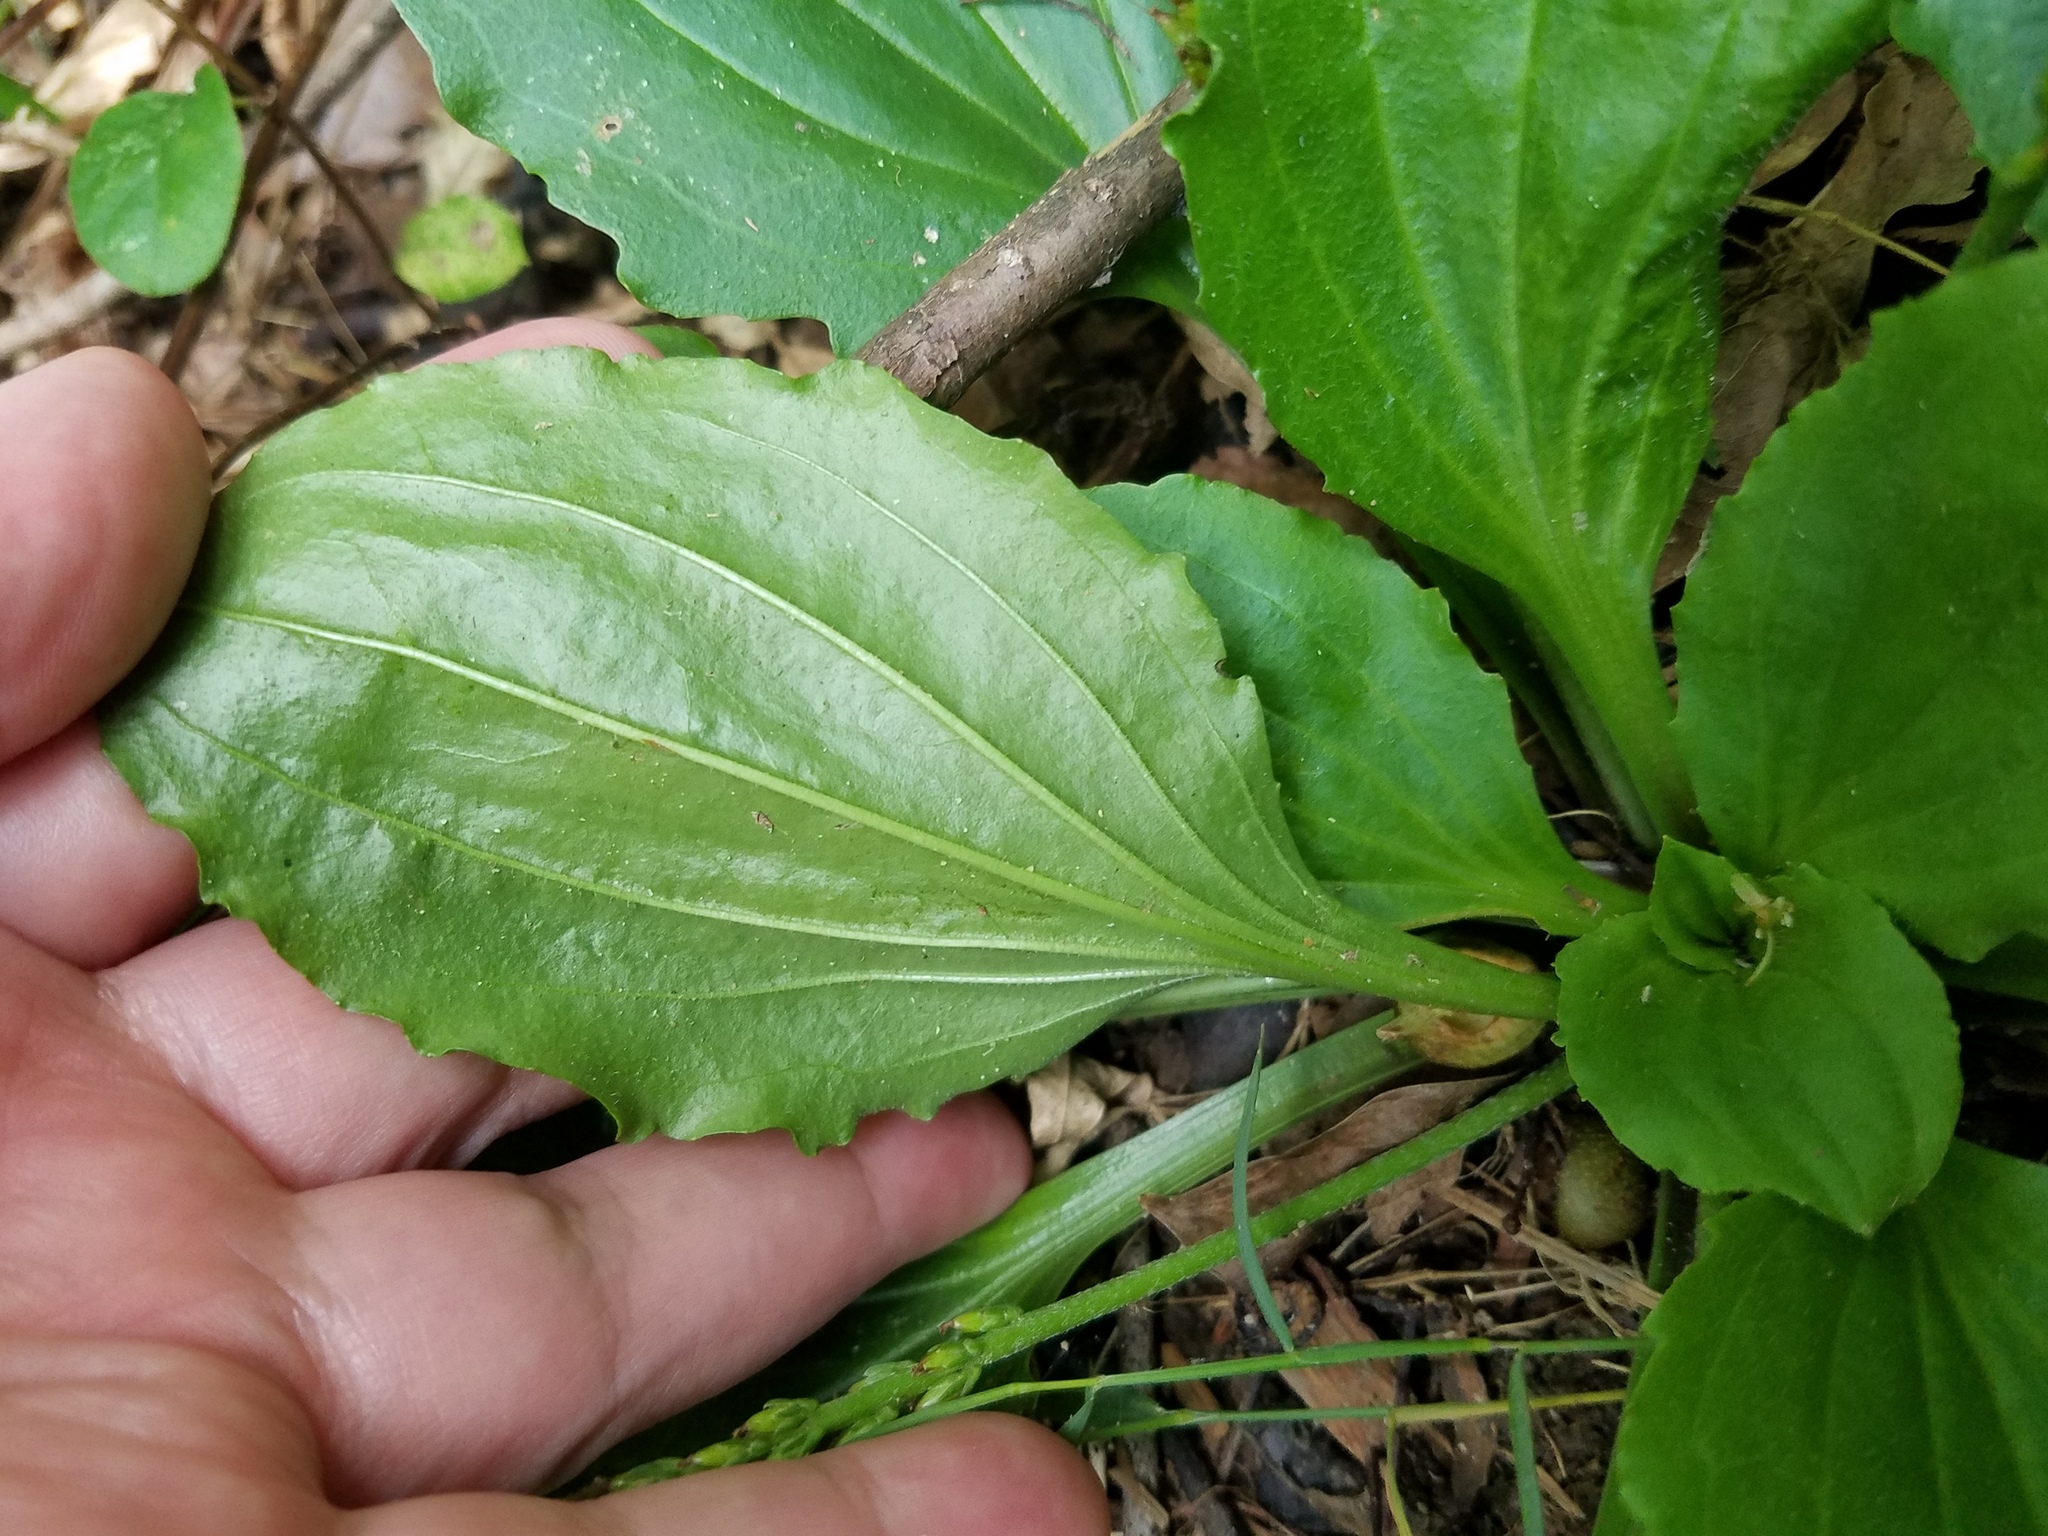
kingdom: Plantae
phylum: Tracheophyta
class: Magnoliopsida
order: Lamiales
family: Plantaginaceae
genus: Plantago
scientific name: Plantago rugelii
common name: American plantain
